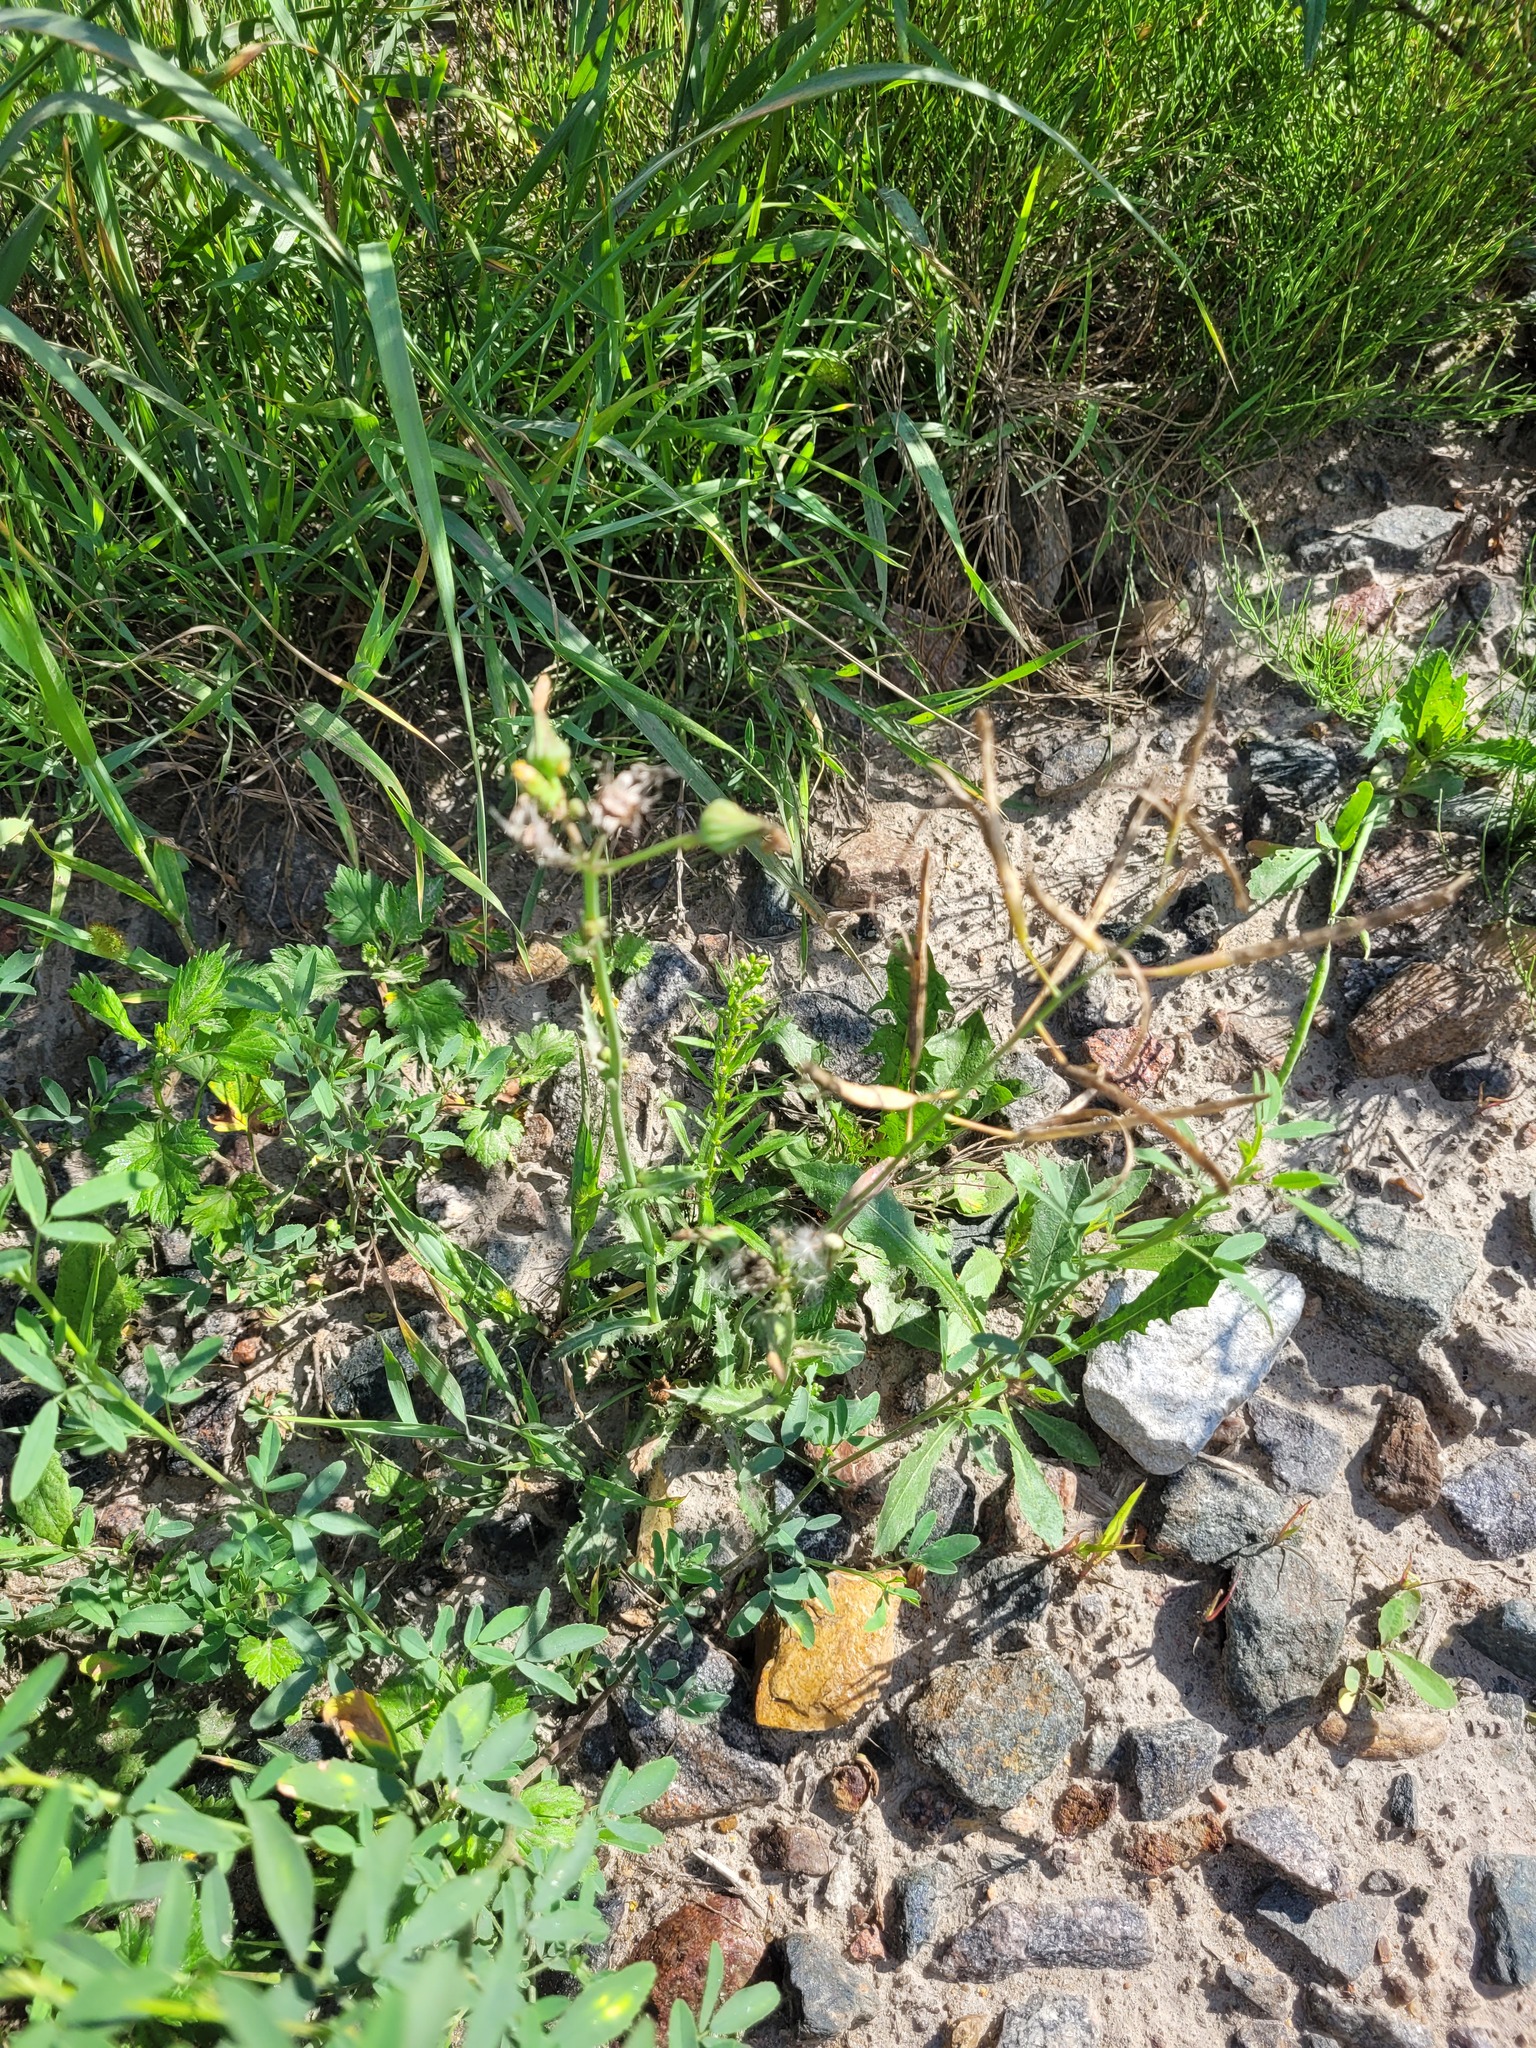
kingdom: Plantae
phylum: Tracheophyta
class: Magnoliopsida
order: Asterales
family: Asteraceae
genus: Erigeron
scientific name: Erigeron canadensis
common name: Canadian fleabane
